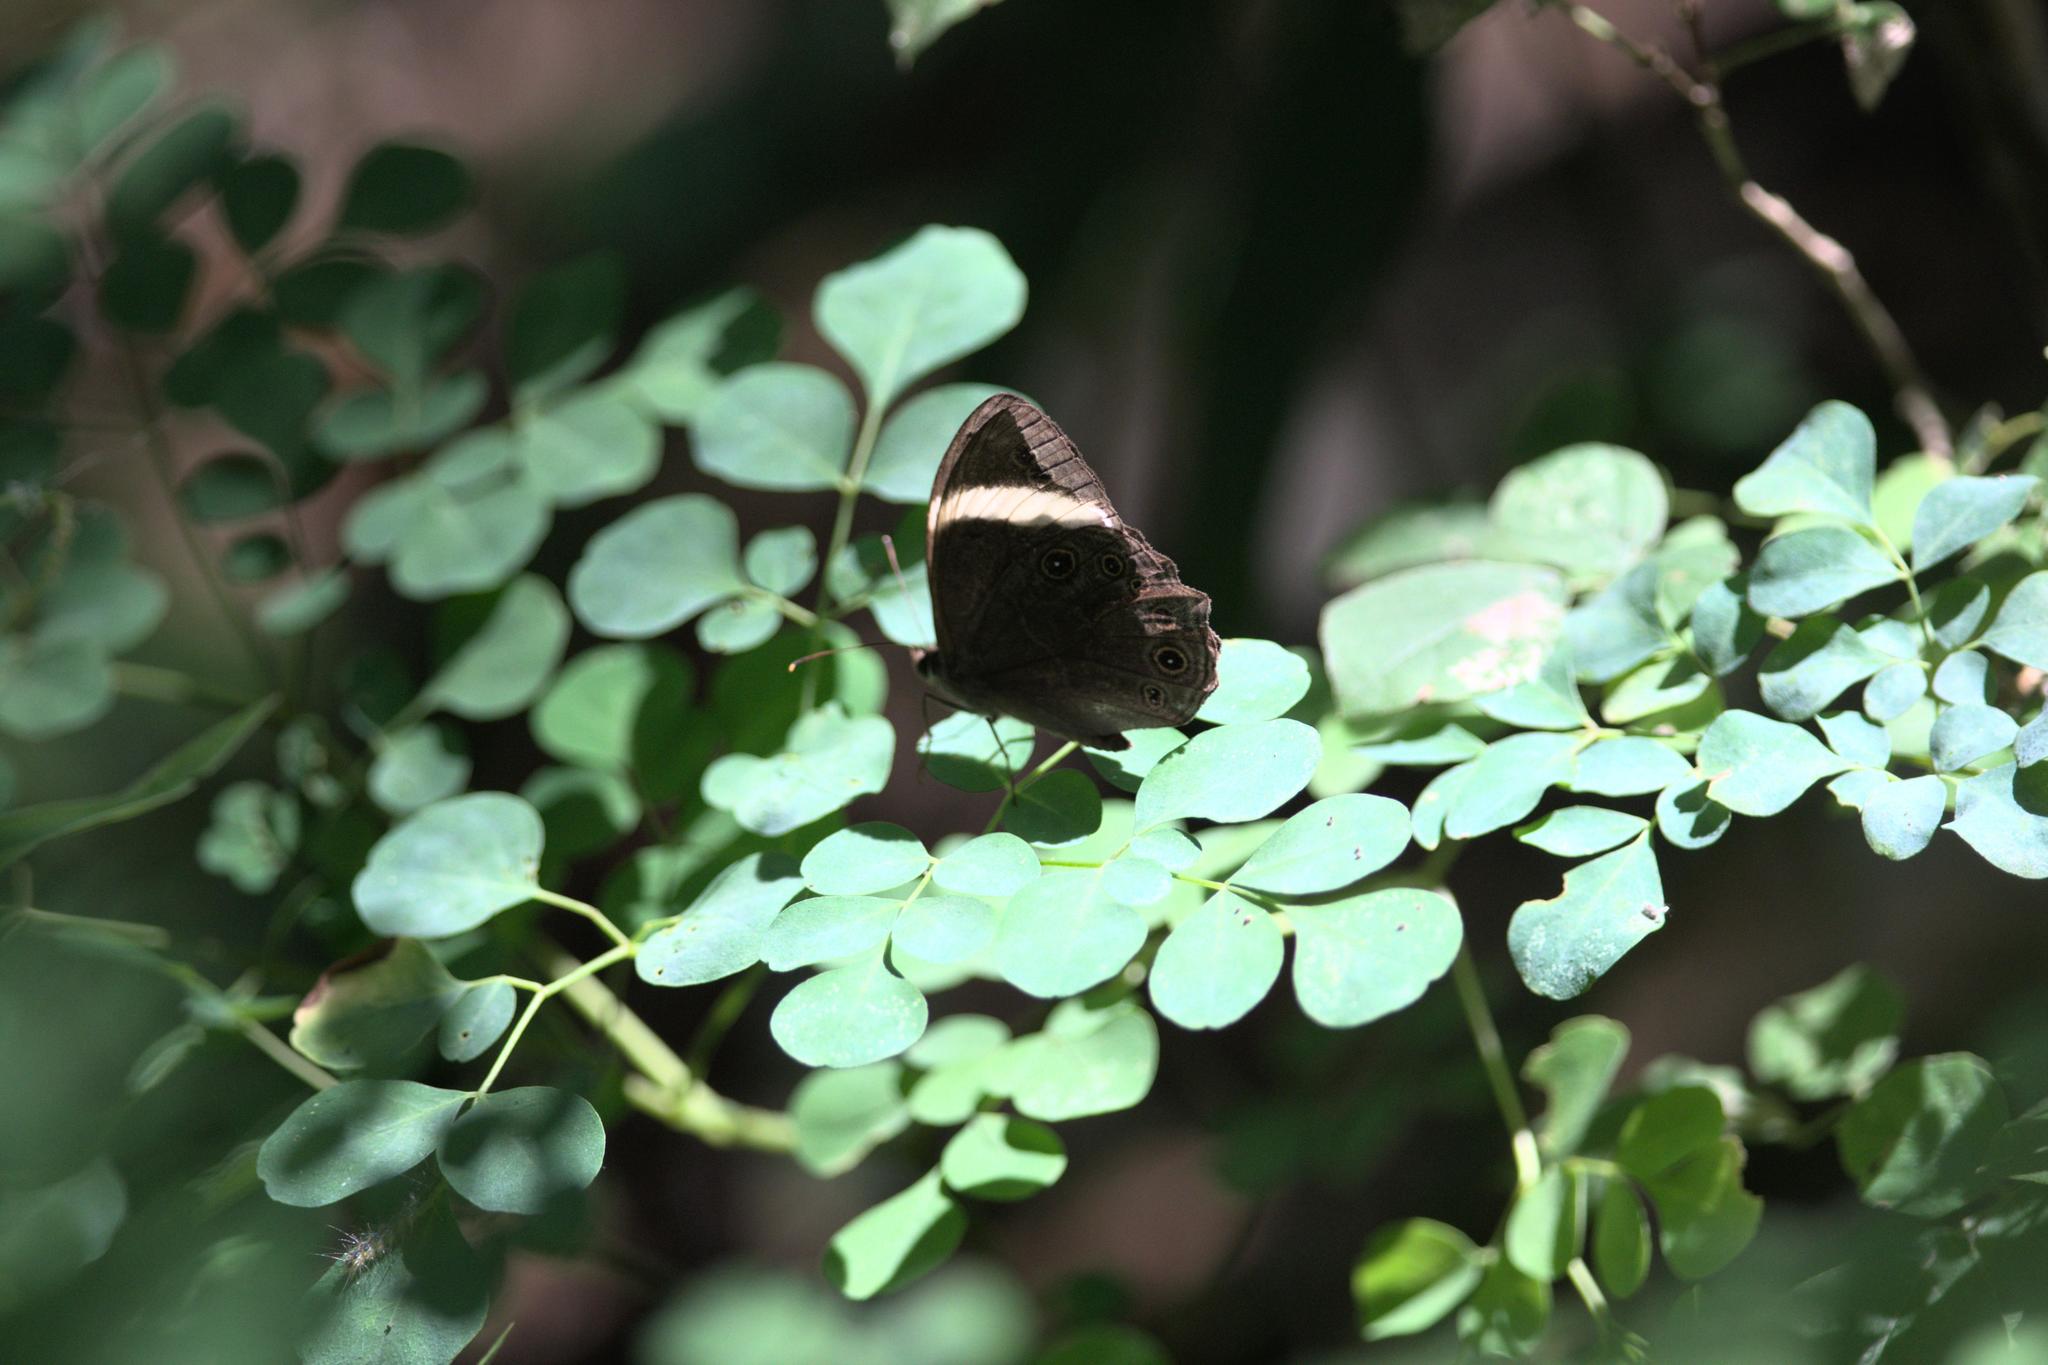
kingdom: Animalia
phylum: Arthropoda
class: Insecta
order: Lepidoptera
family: Nymphalidae
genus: Lethe
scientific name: Lethe verma
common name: Straight-banded treebrown
